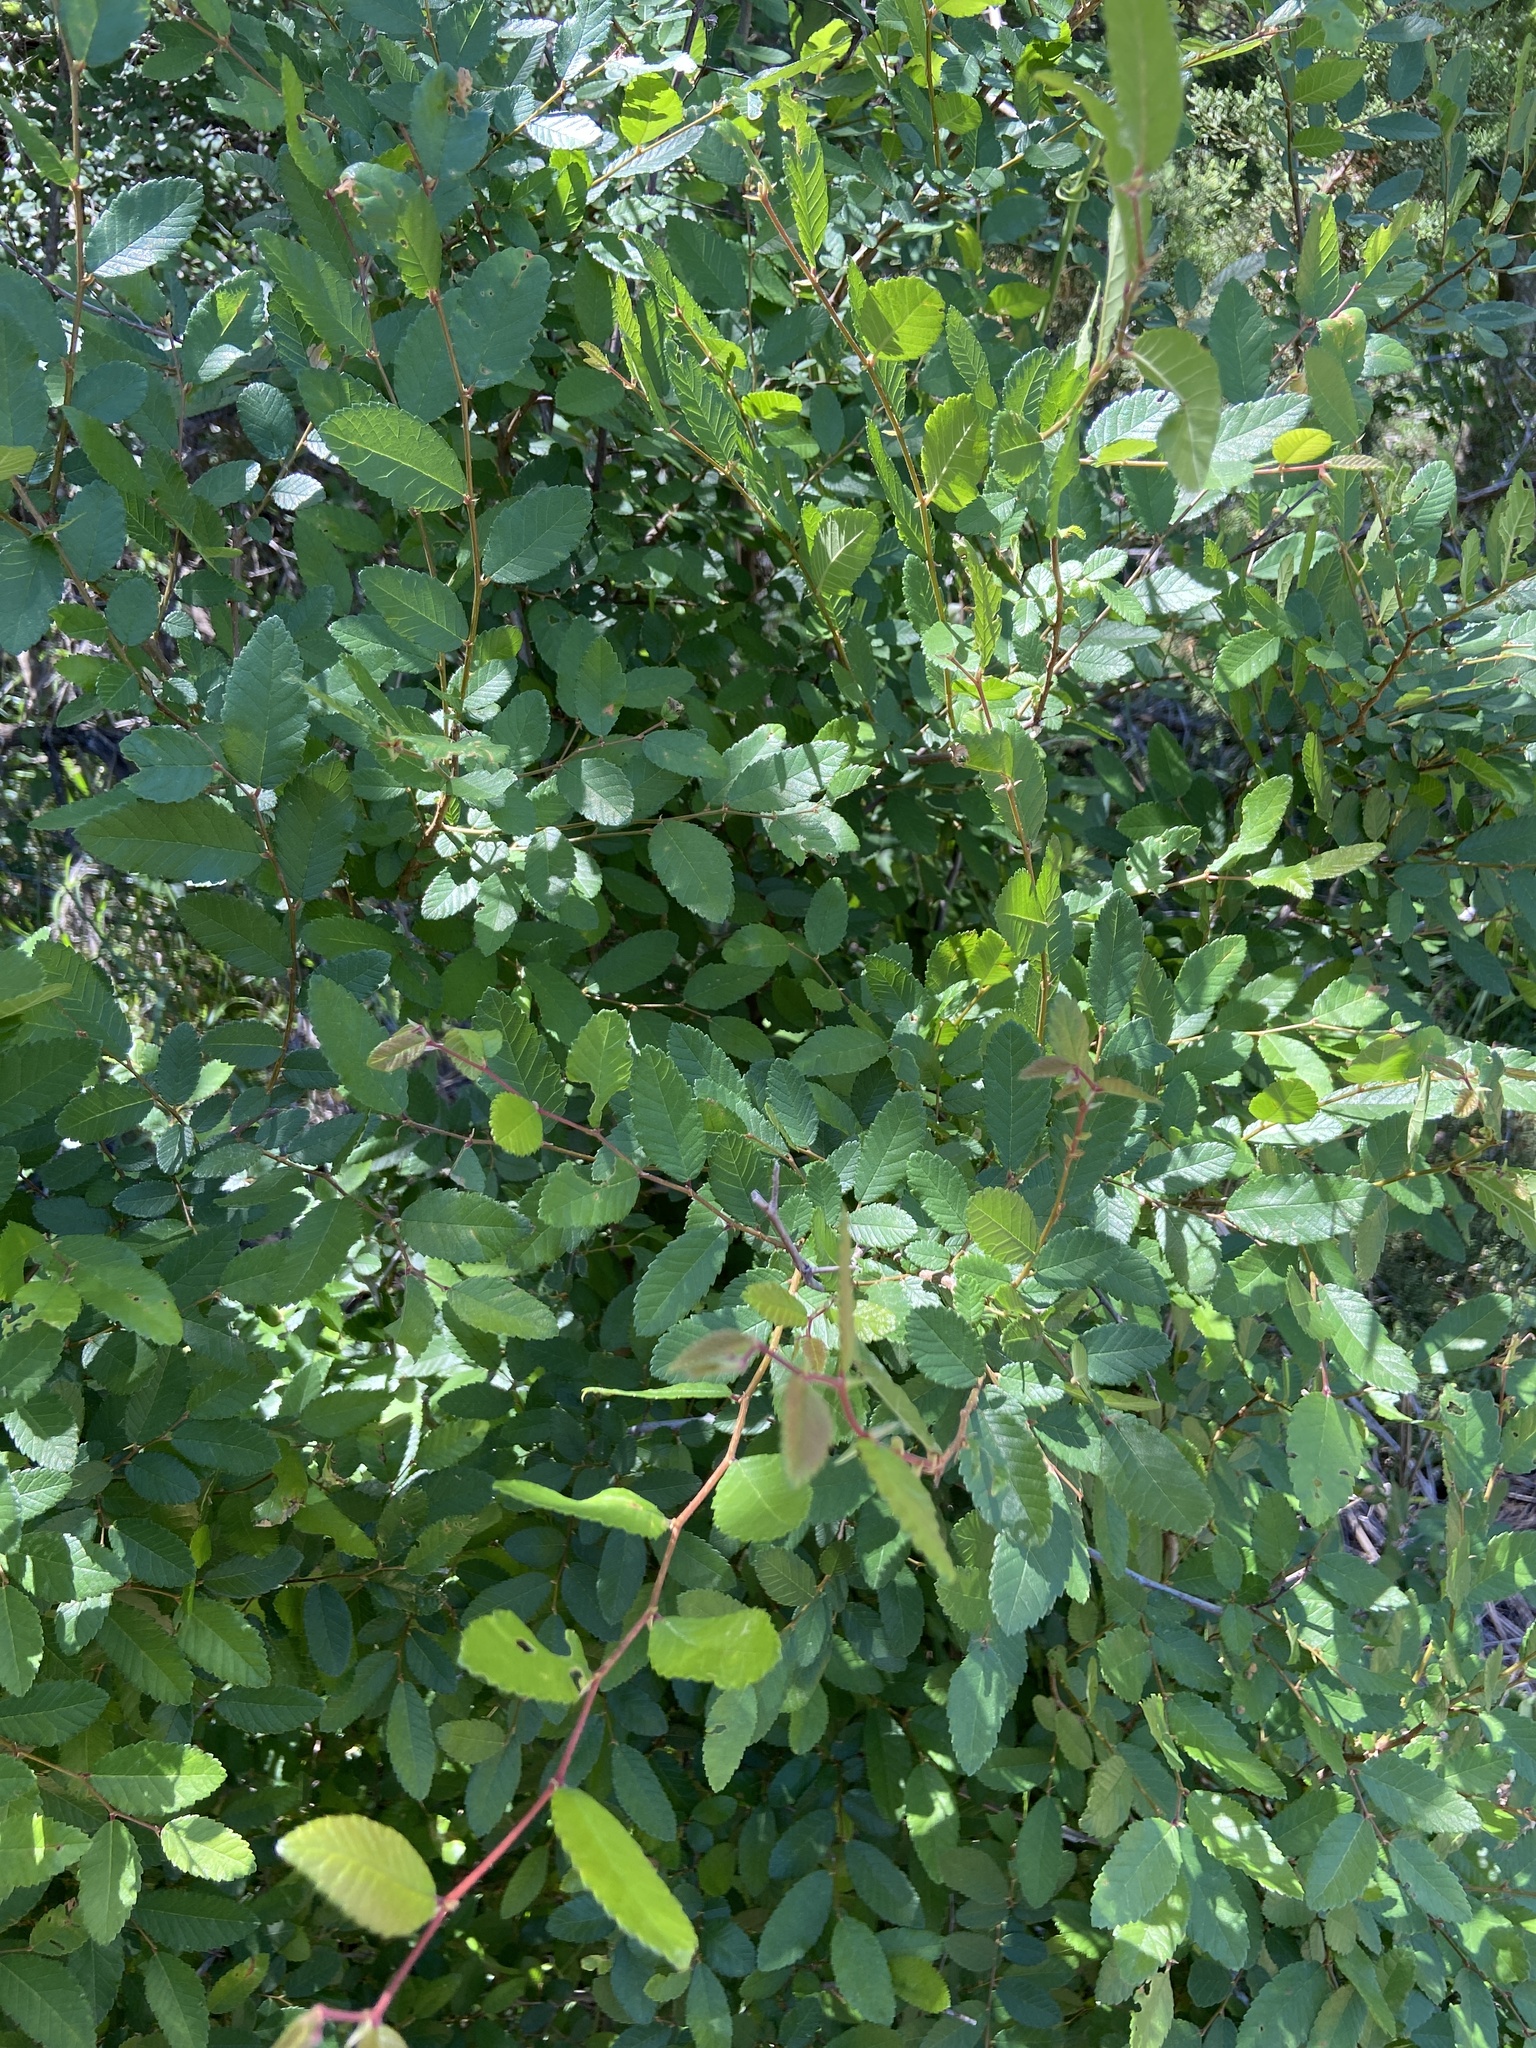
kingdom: Plantae
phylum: Tracheophyta
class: Magnoliopsida
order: Rosales
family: Ulmaceae
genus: Ulmus
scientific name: Ulmus crassifolia
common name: Basket elm
